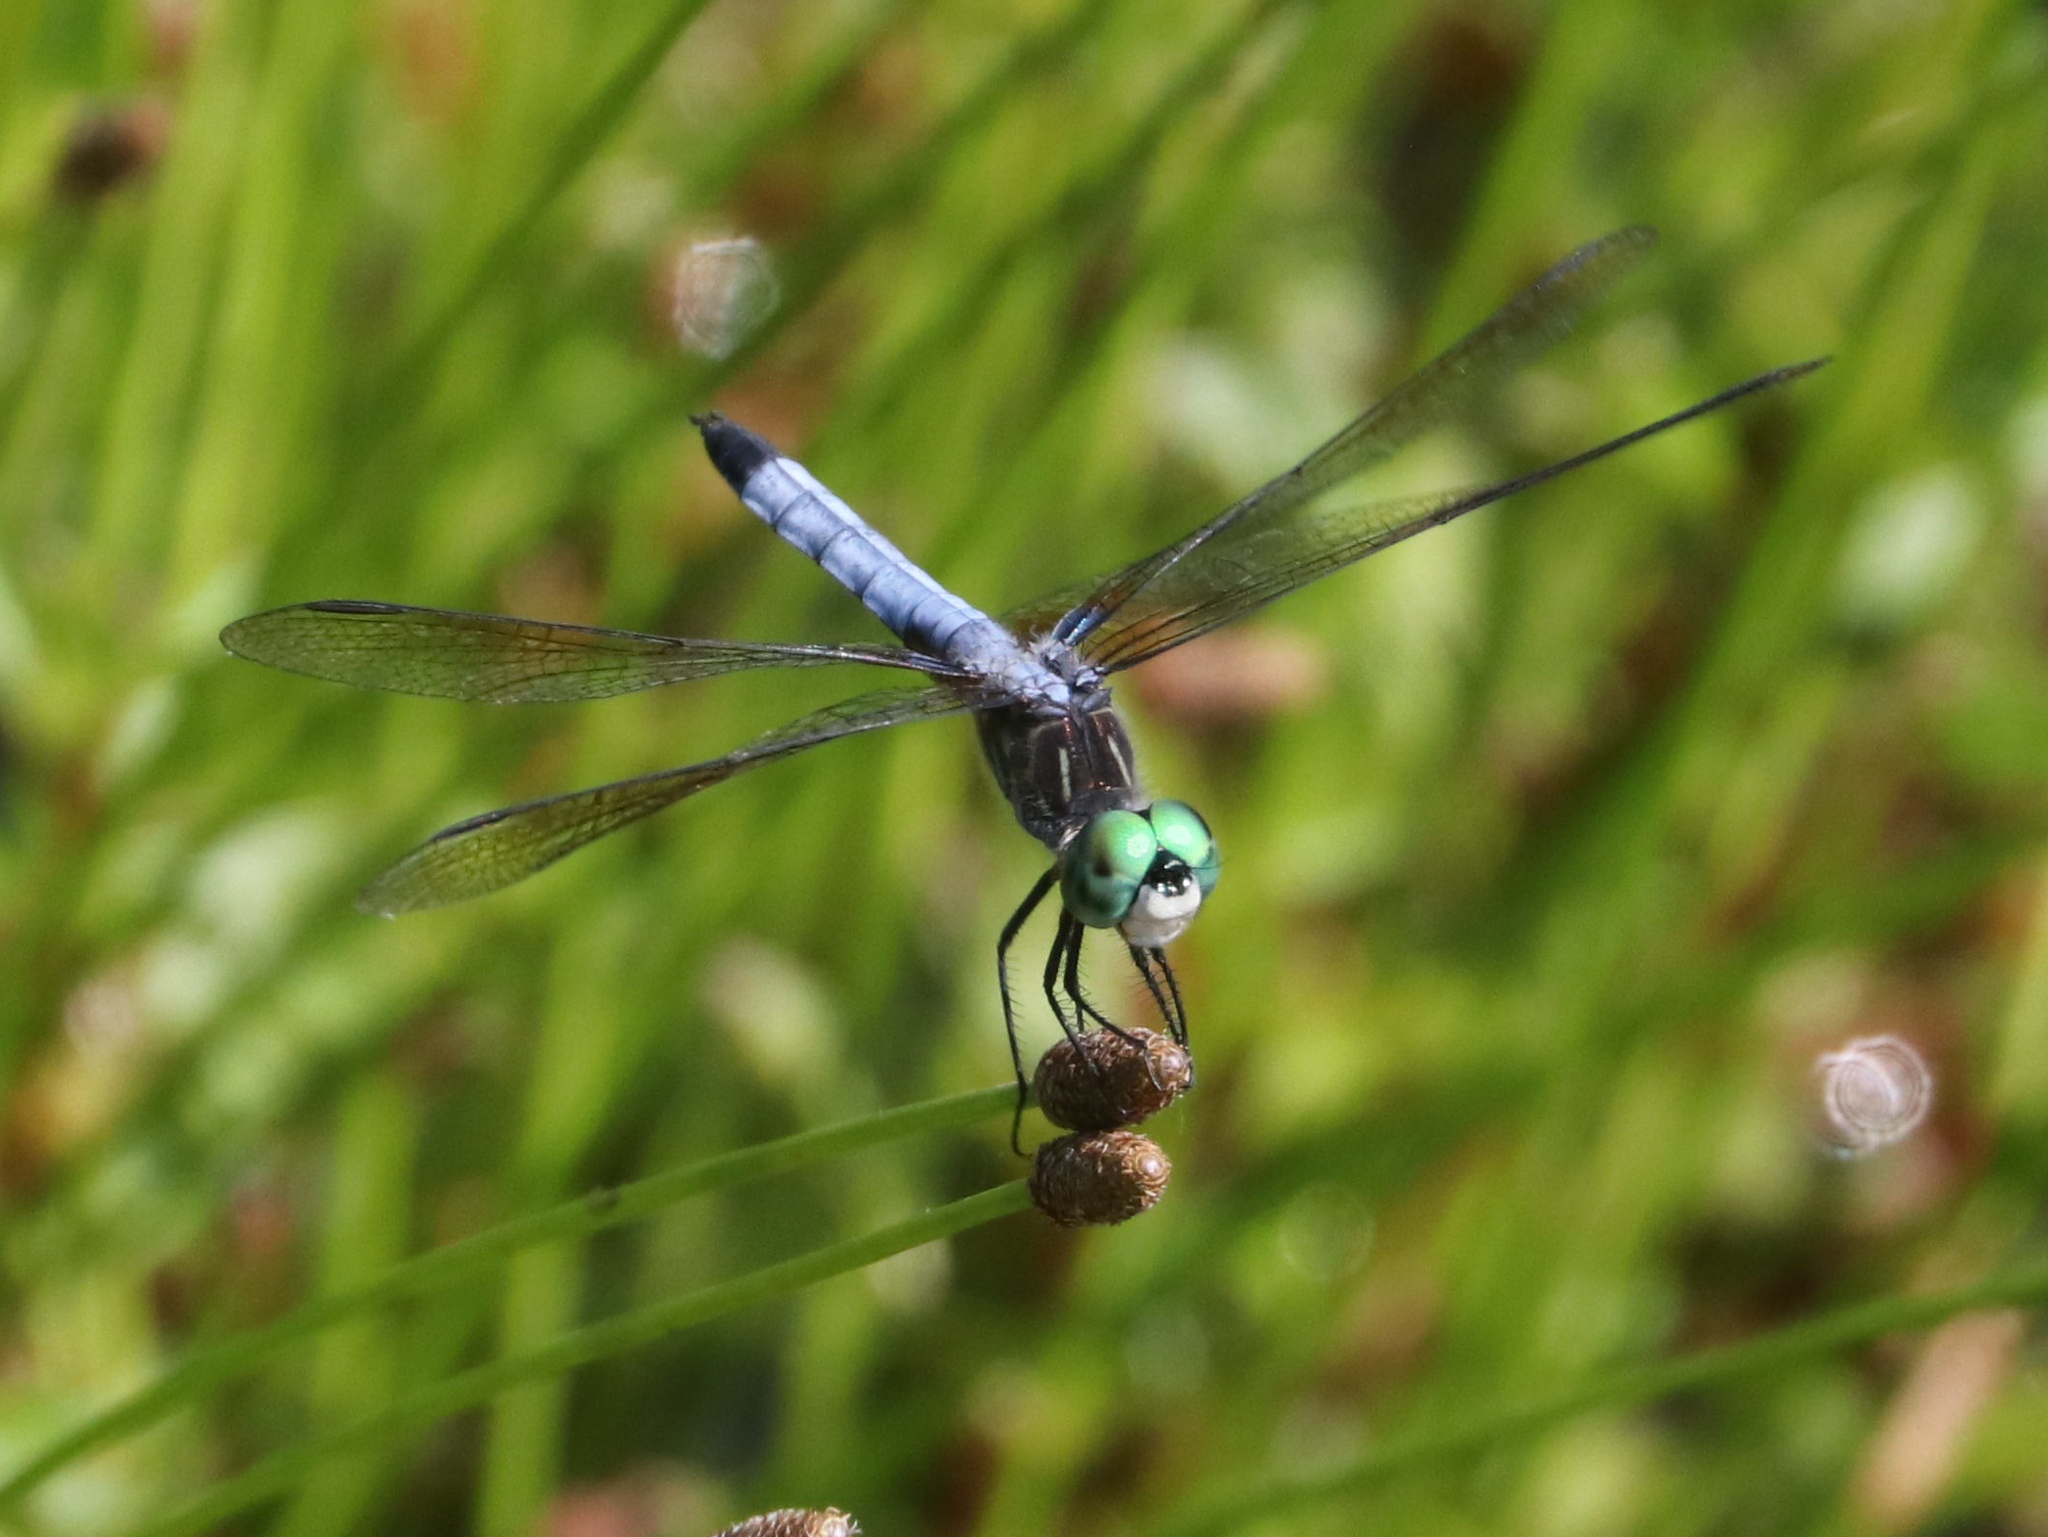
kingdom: Animalia
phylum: Arthropoda
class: Insecta
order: Odonata
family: Libellulidae
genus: Pachydiplax
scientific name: Pachydiplax longipennis
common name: Blue dasher
